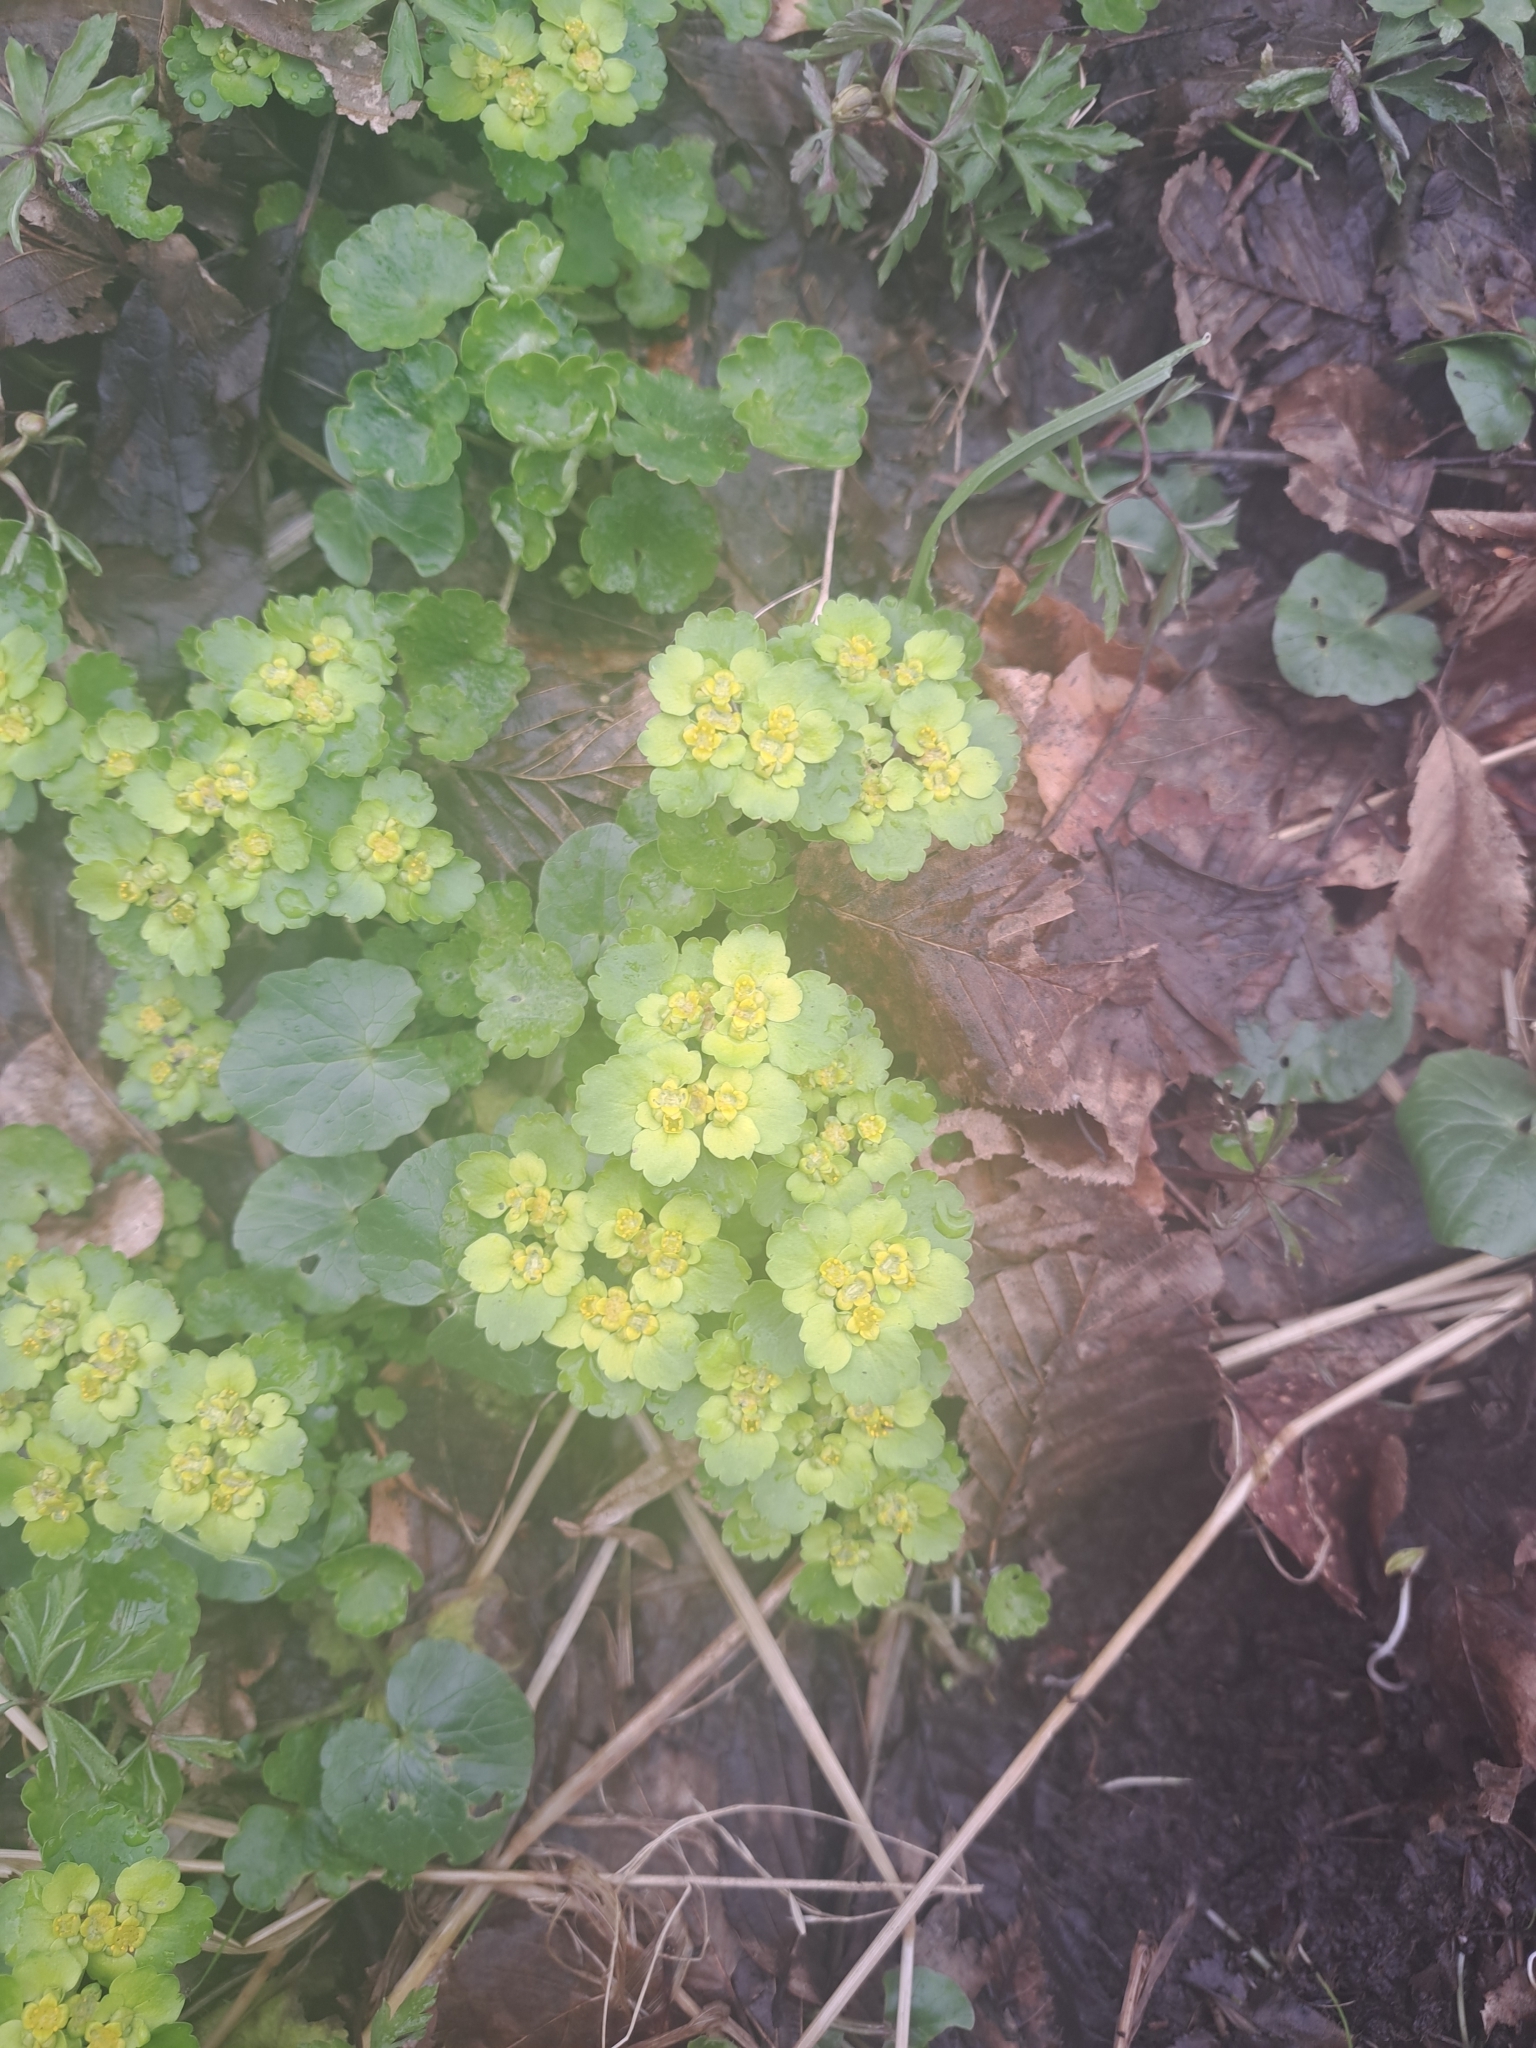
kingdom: Plantae
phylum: Tracheophyta
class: Magnoliopsida
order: Saxifragales
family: Saxifragaceae
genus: Chrysosplenium
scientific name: Chrysosplenium alternifolium
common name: Alternate-leaved golden-saxifrage
